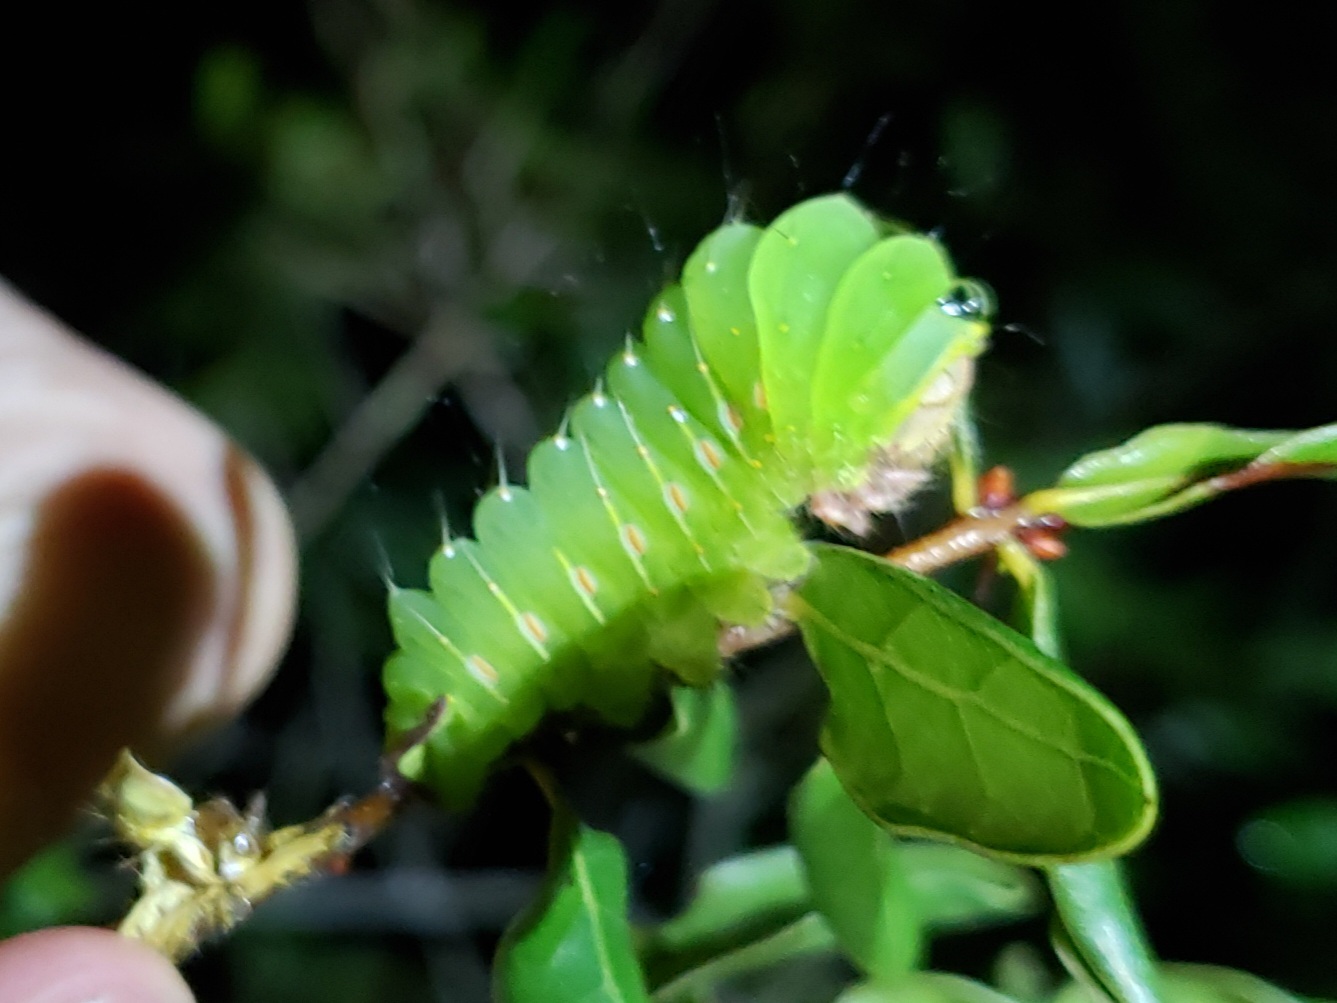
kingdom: Animalia
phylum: Arthropoda
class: Insecta
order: Lepidoptera
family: Saturniidae
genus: Antheraea
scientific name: Antheraea polyphemus
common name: Polyphemus moth
